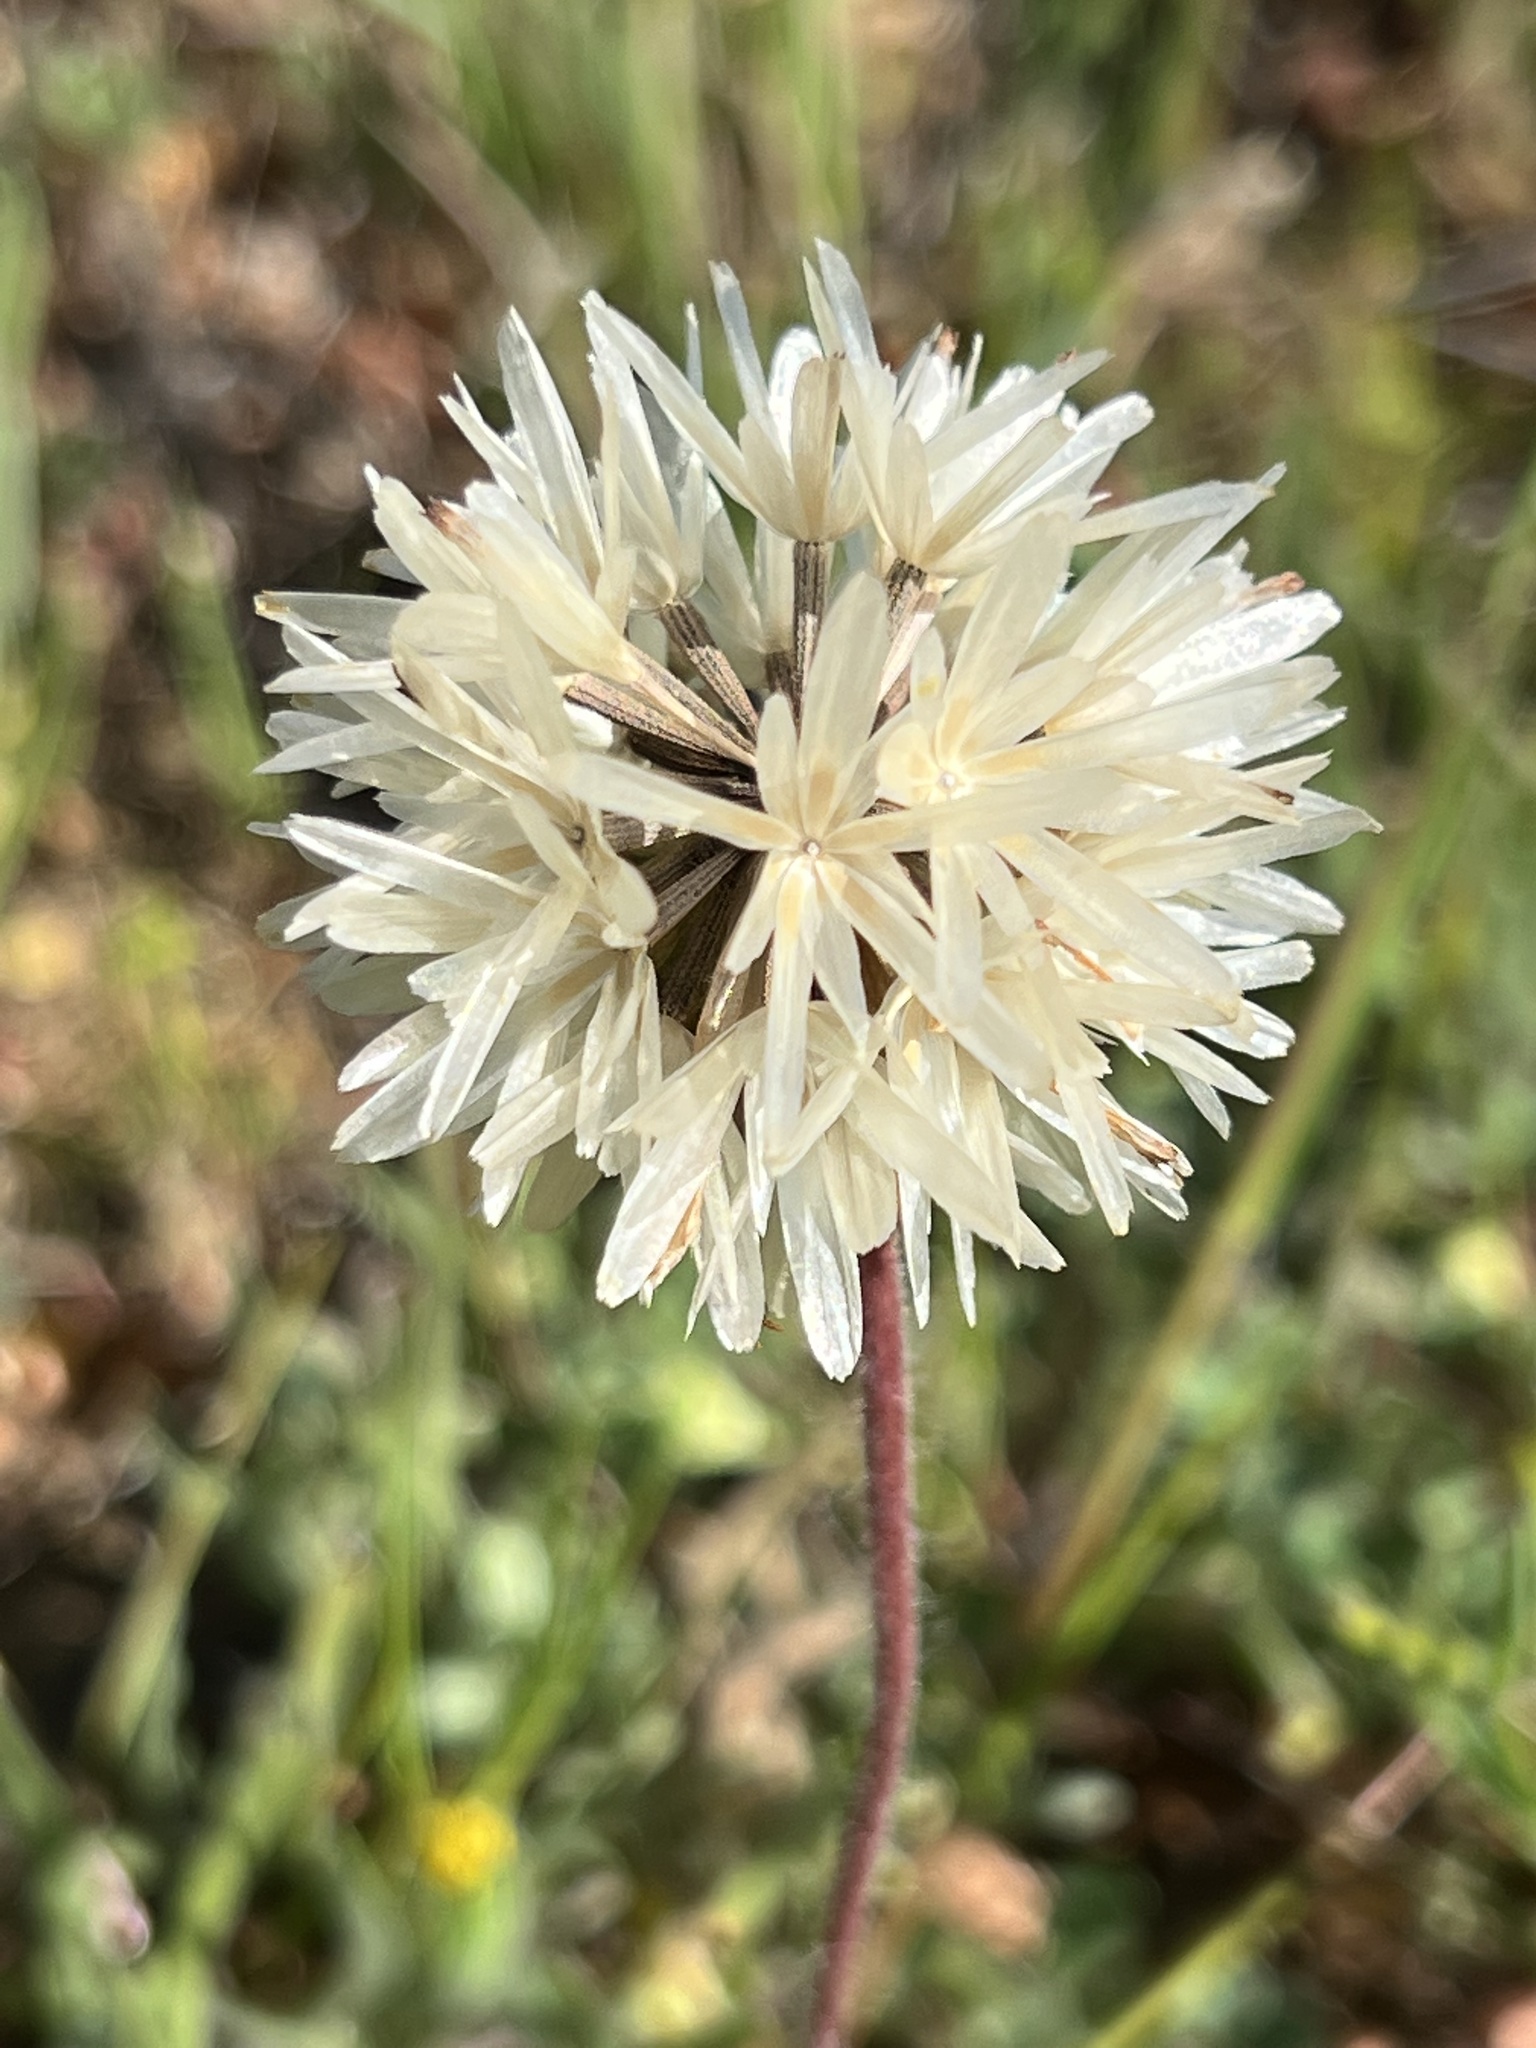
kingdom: Plantae
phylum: Tracheophyta
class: Magnoliopsida
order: Asterales
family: Asteraceae
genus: Achyrachaena
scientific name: Achyrachaena mollis
